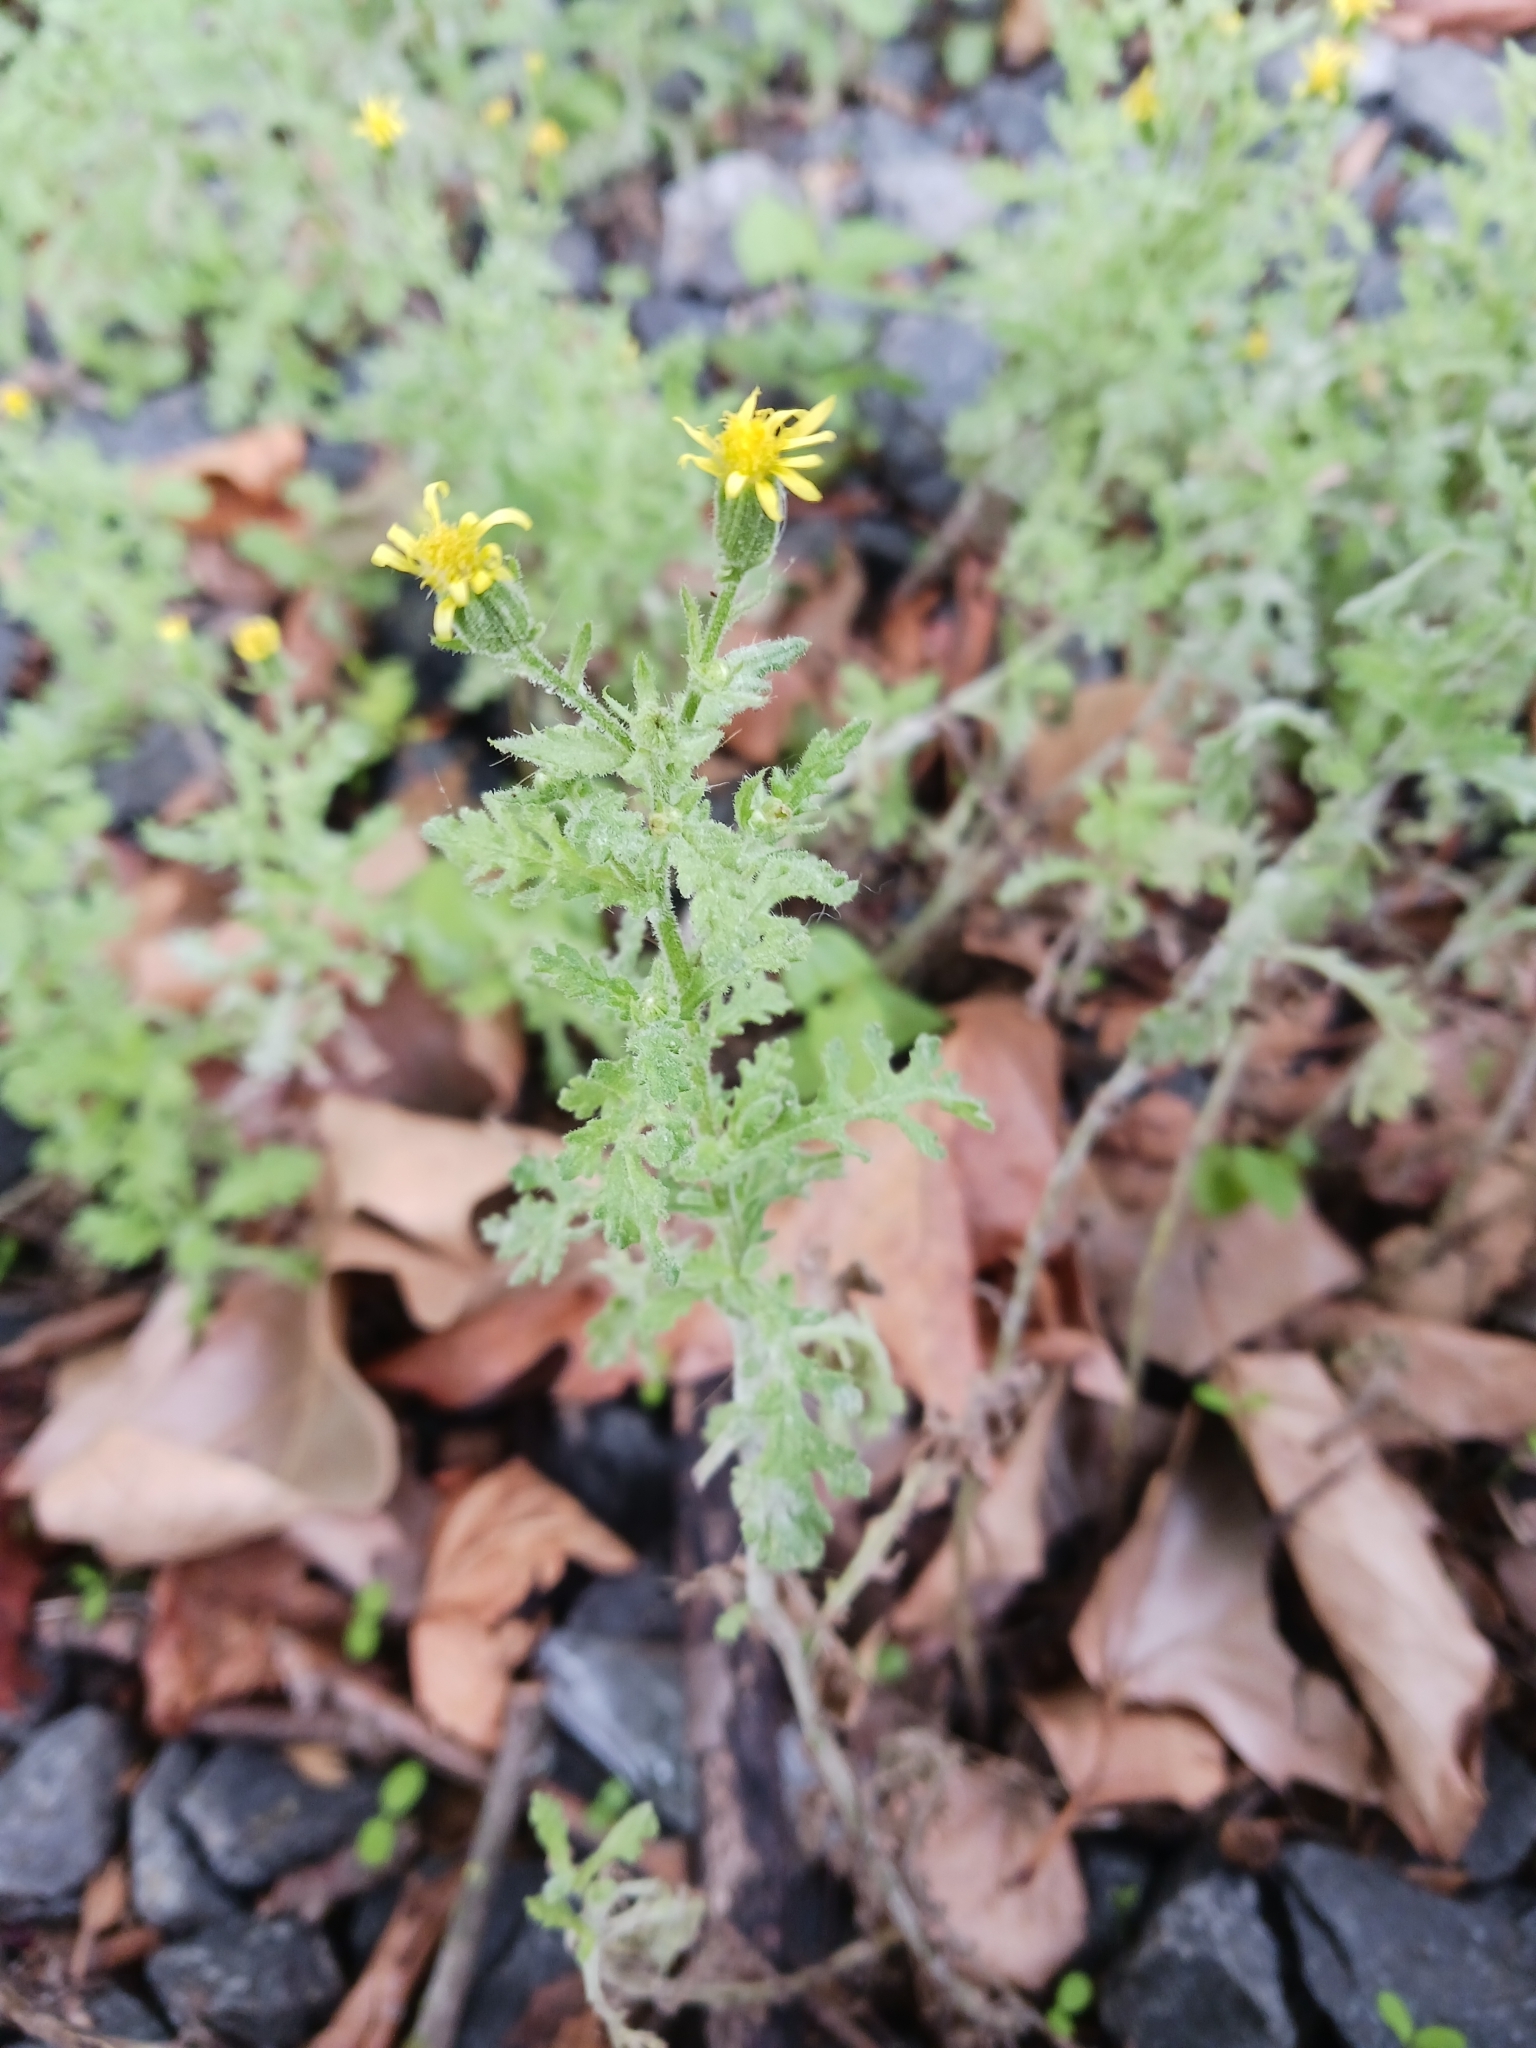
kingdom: Plantae
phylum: Tracheophyta
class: Magnoliopsida
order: Asterales
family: Asteraceae
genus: Senecio
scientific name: Senecio viscosus
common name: Sticky groundsel
